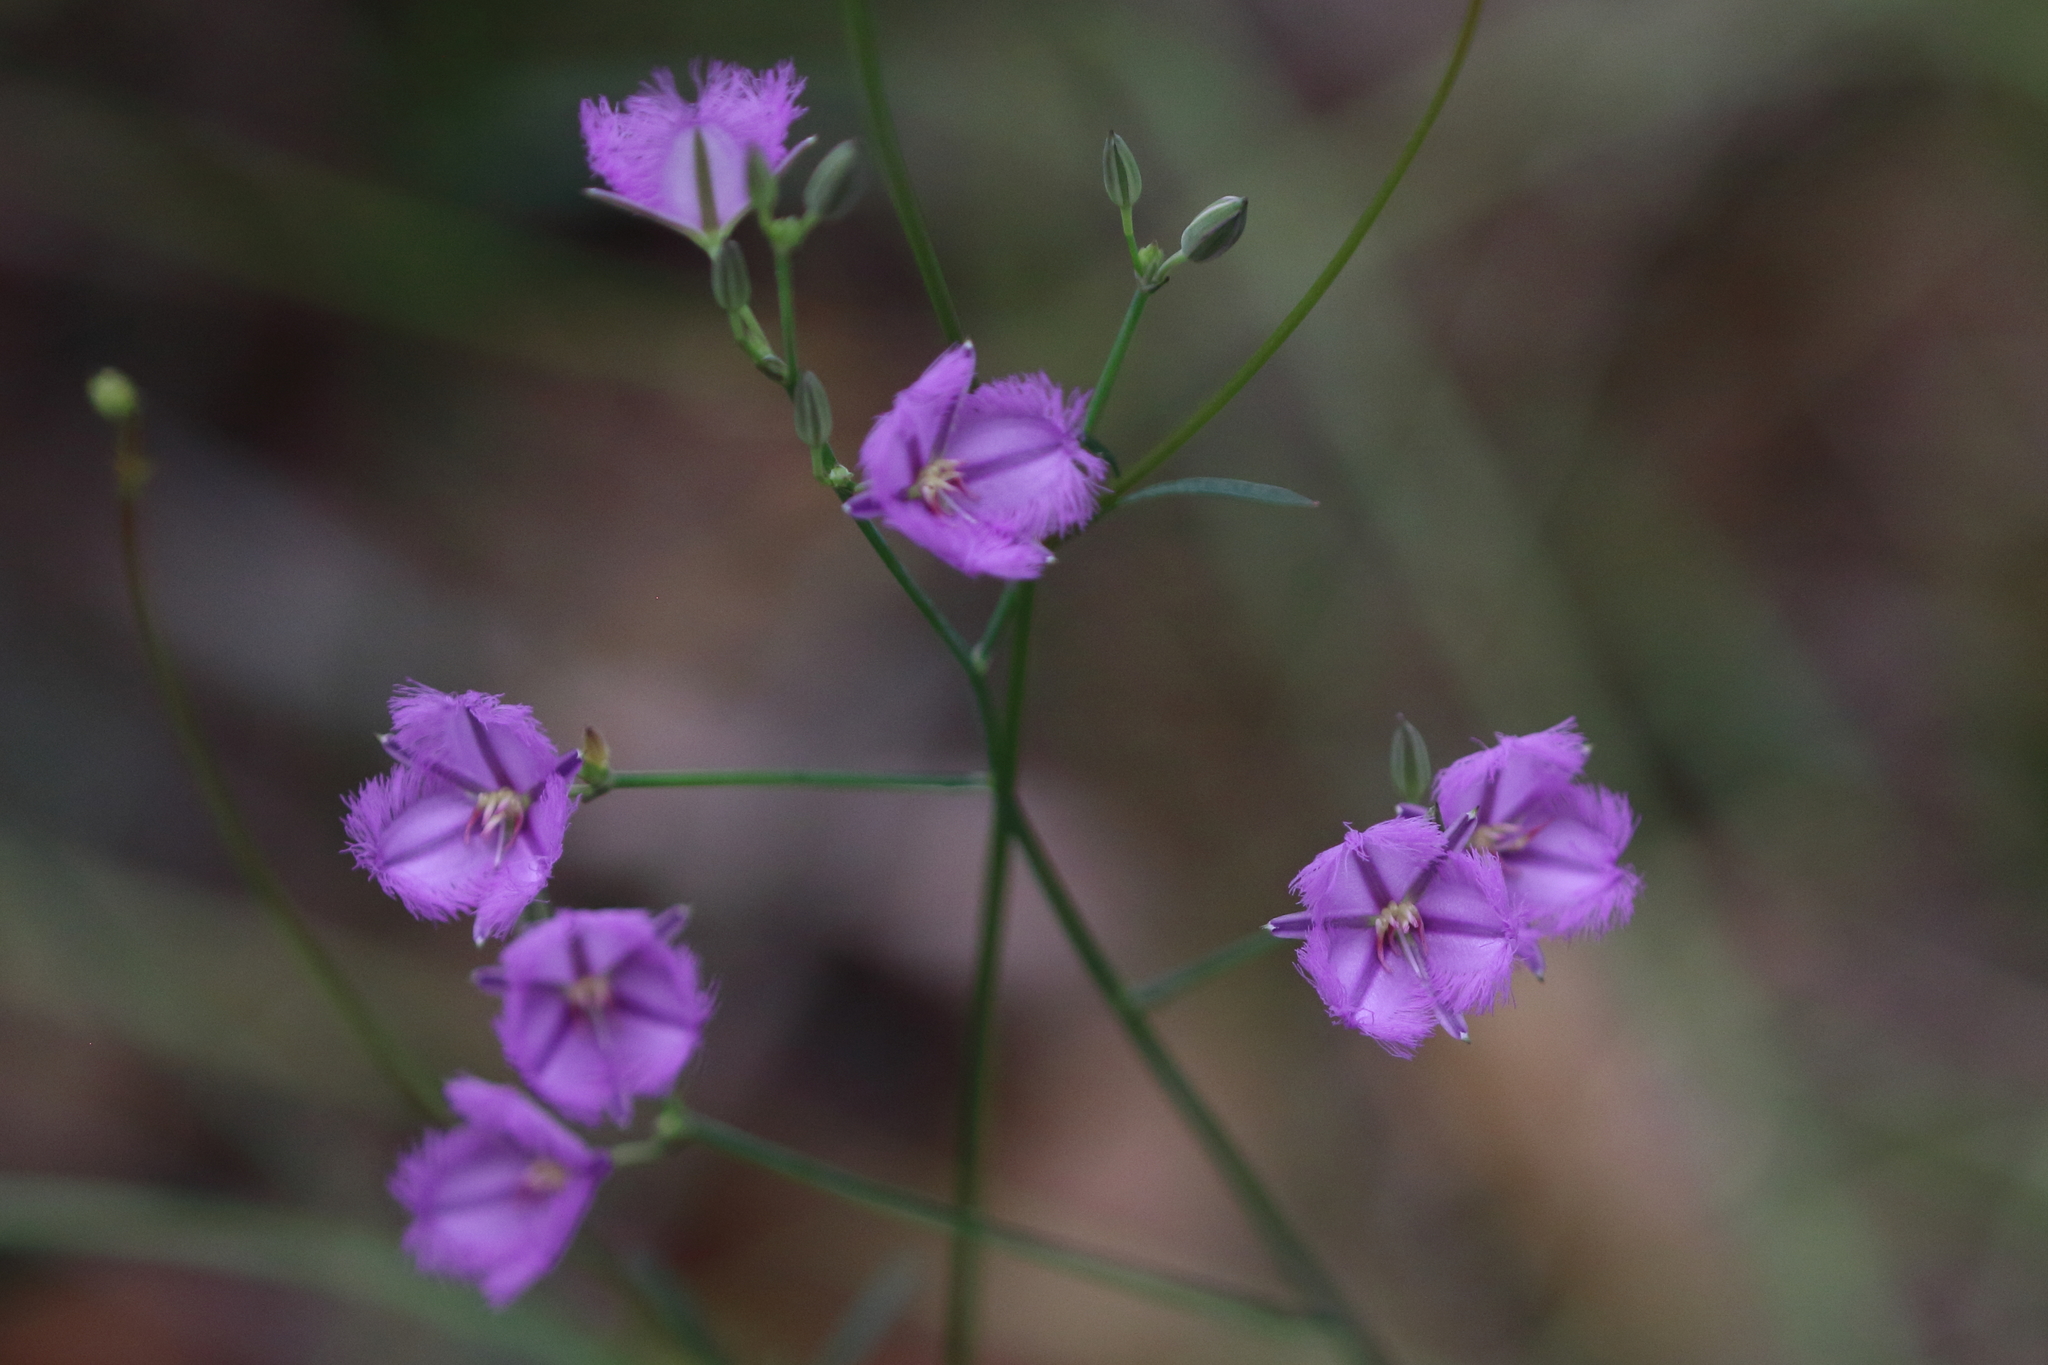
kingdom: Plantae
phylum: Tracheophyta
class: Liliopsida
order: Asparagales
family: Asparagaceae
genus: Thysanotus
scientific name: Thysanotus tuberosus
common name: Common fringed-lily
